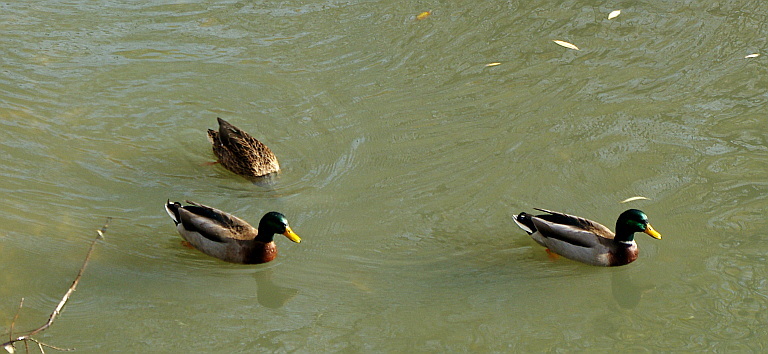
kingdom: Animalia
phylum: Chordata
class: Aves
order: Anseriformes
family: Anatidae
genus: Anas
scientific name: Anas platyrhynchos
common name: Mallard
